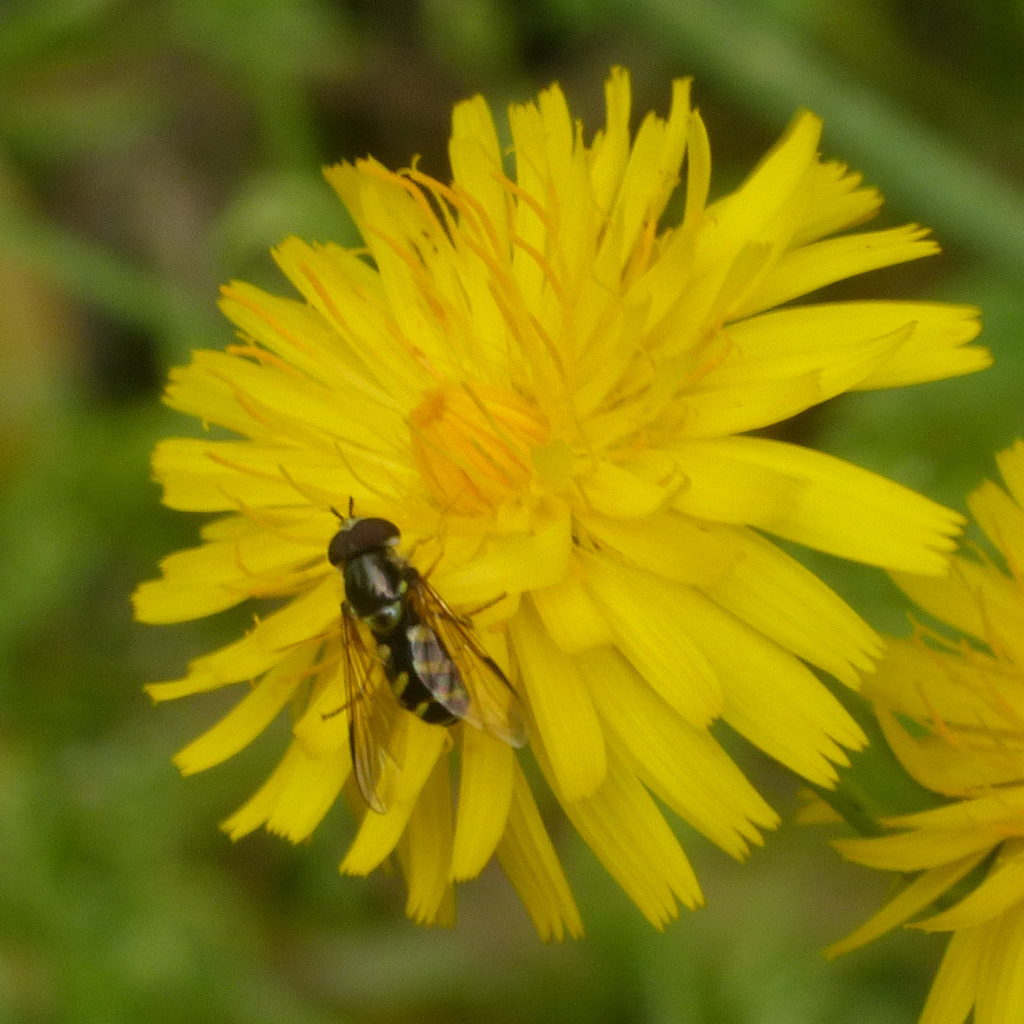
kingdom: Animalia
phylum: Arthropoda
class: Insecta
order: Diptera
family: Syrphidae
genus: Dasysyrphus
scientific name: Dasysyrphus albostriatus
